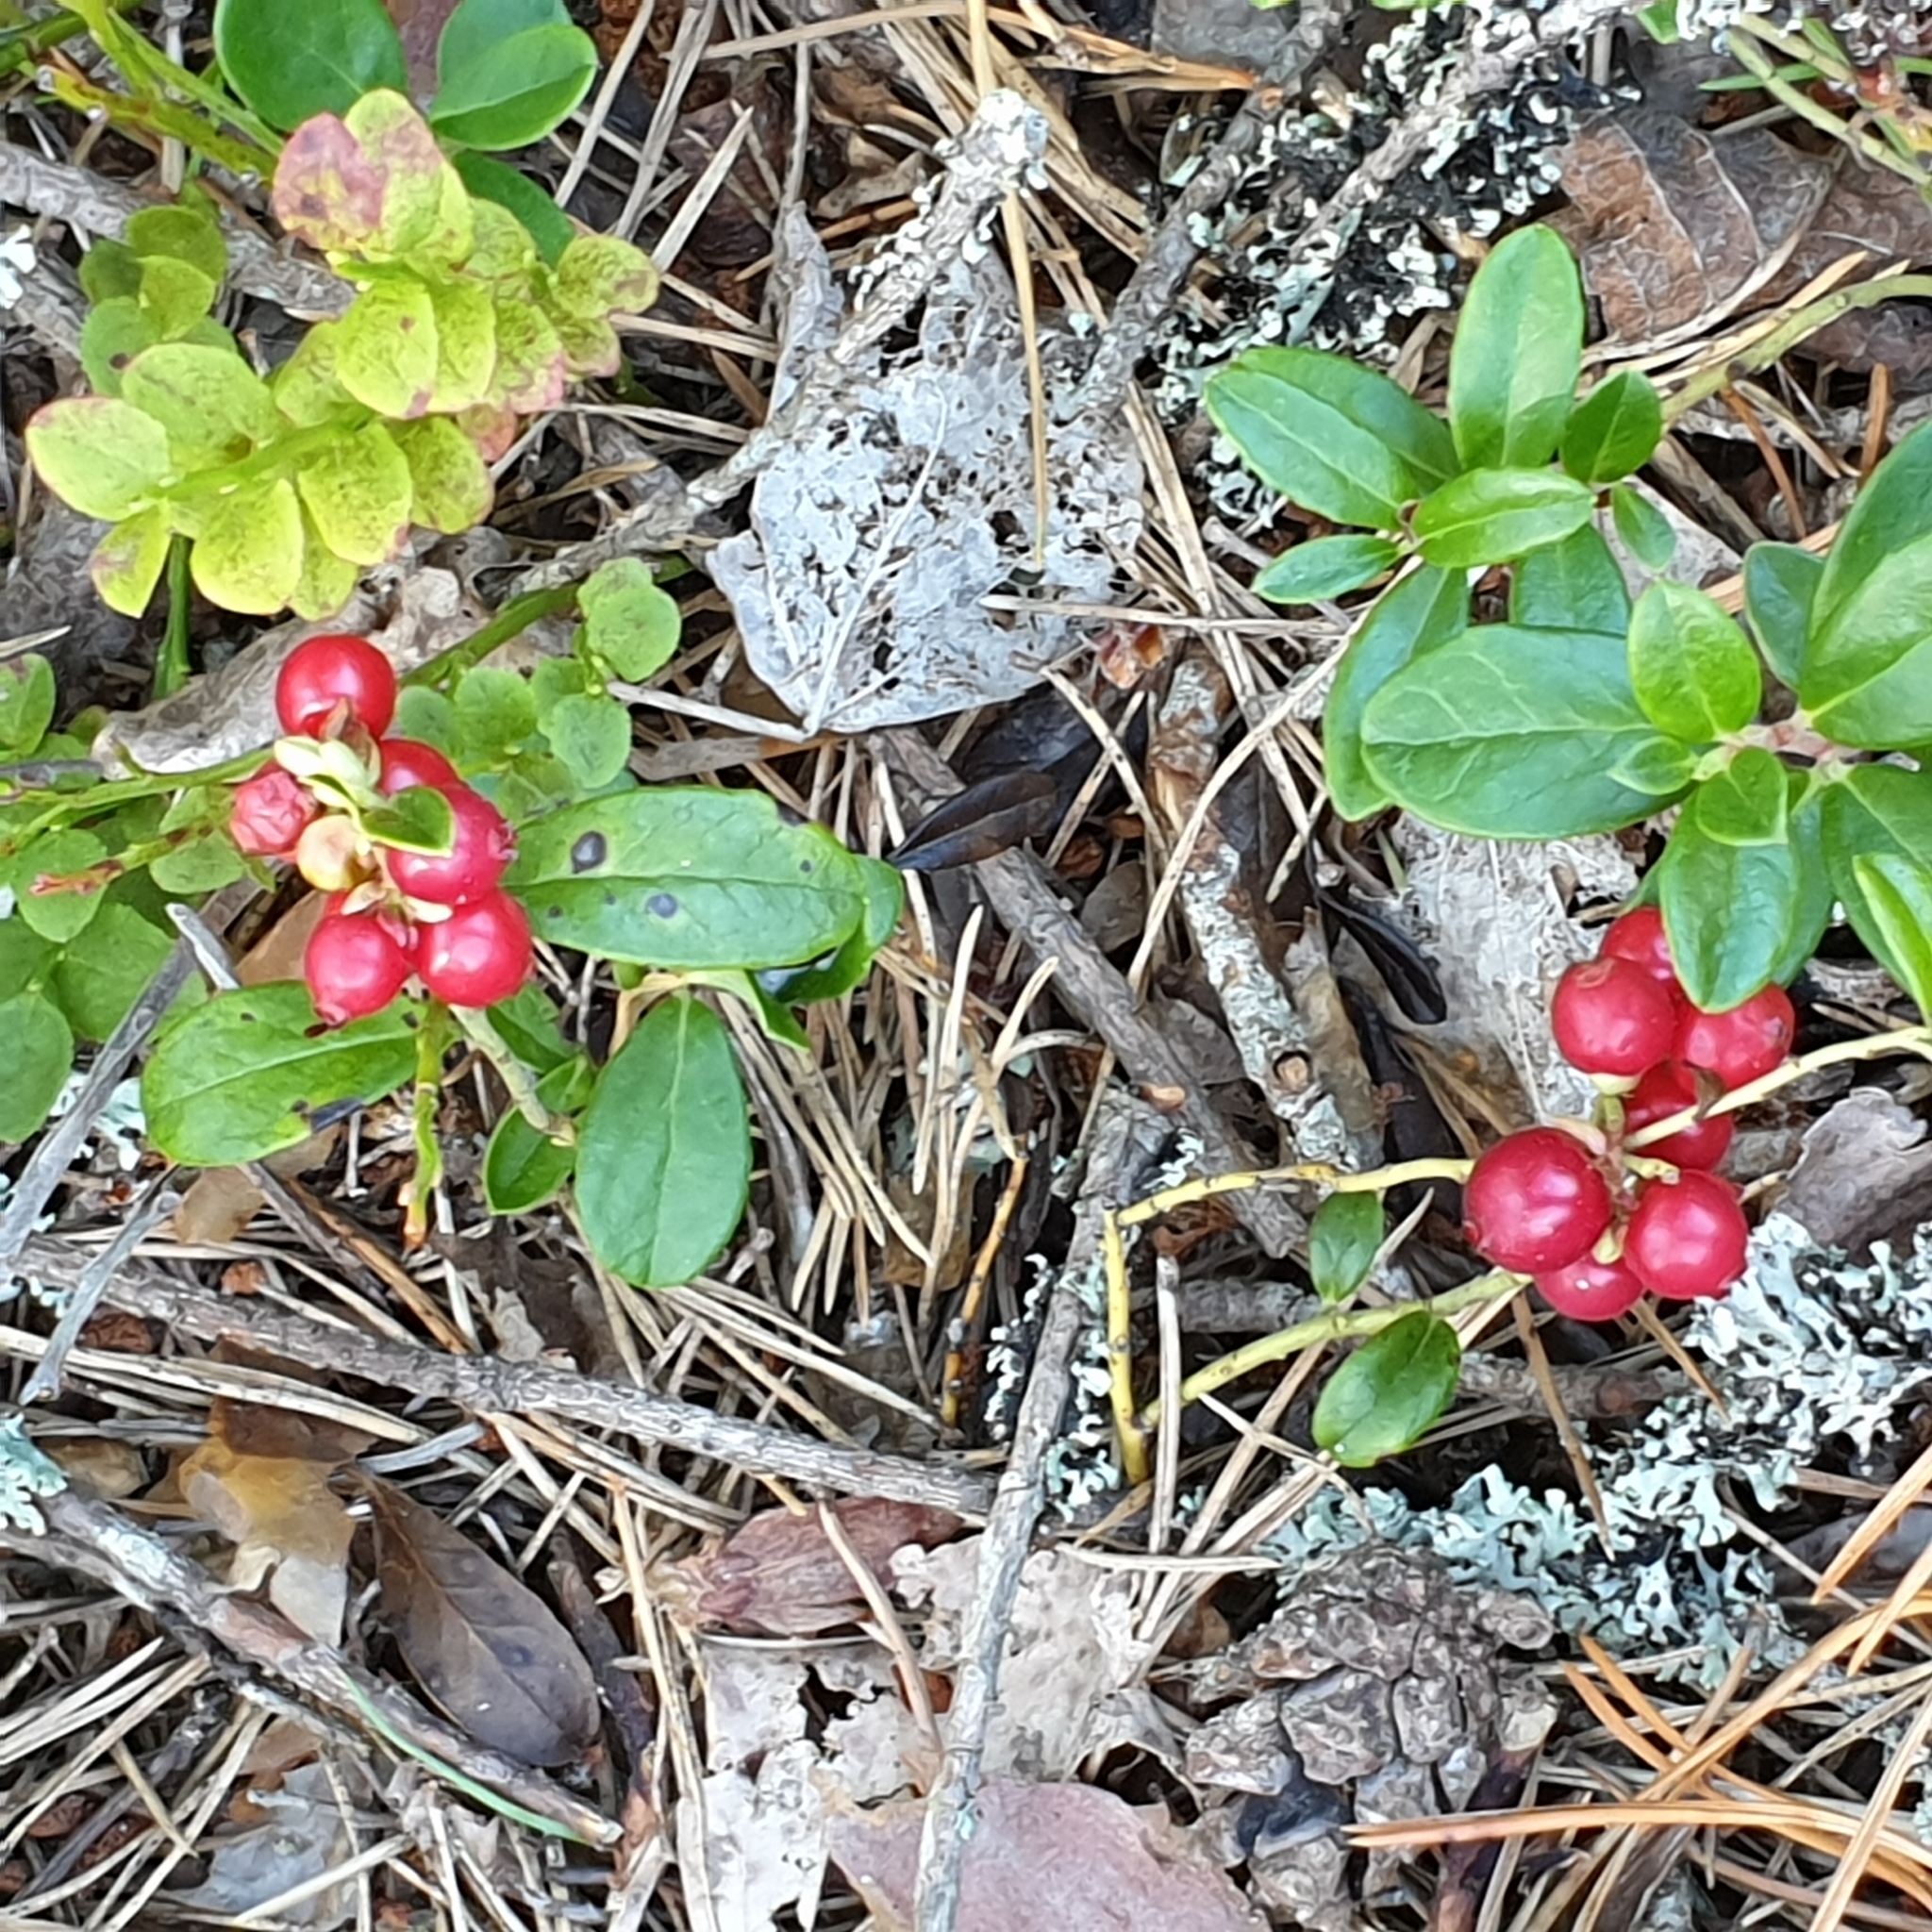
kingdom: Plantae
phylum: Tracheophyta
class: Magnoliopsida
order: Ericales
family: Ericaceae
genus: Vaccinium
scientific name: Vaccinium vitis-idaea
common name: Cowberry
